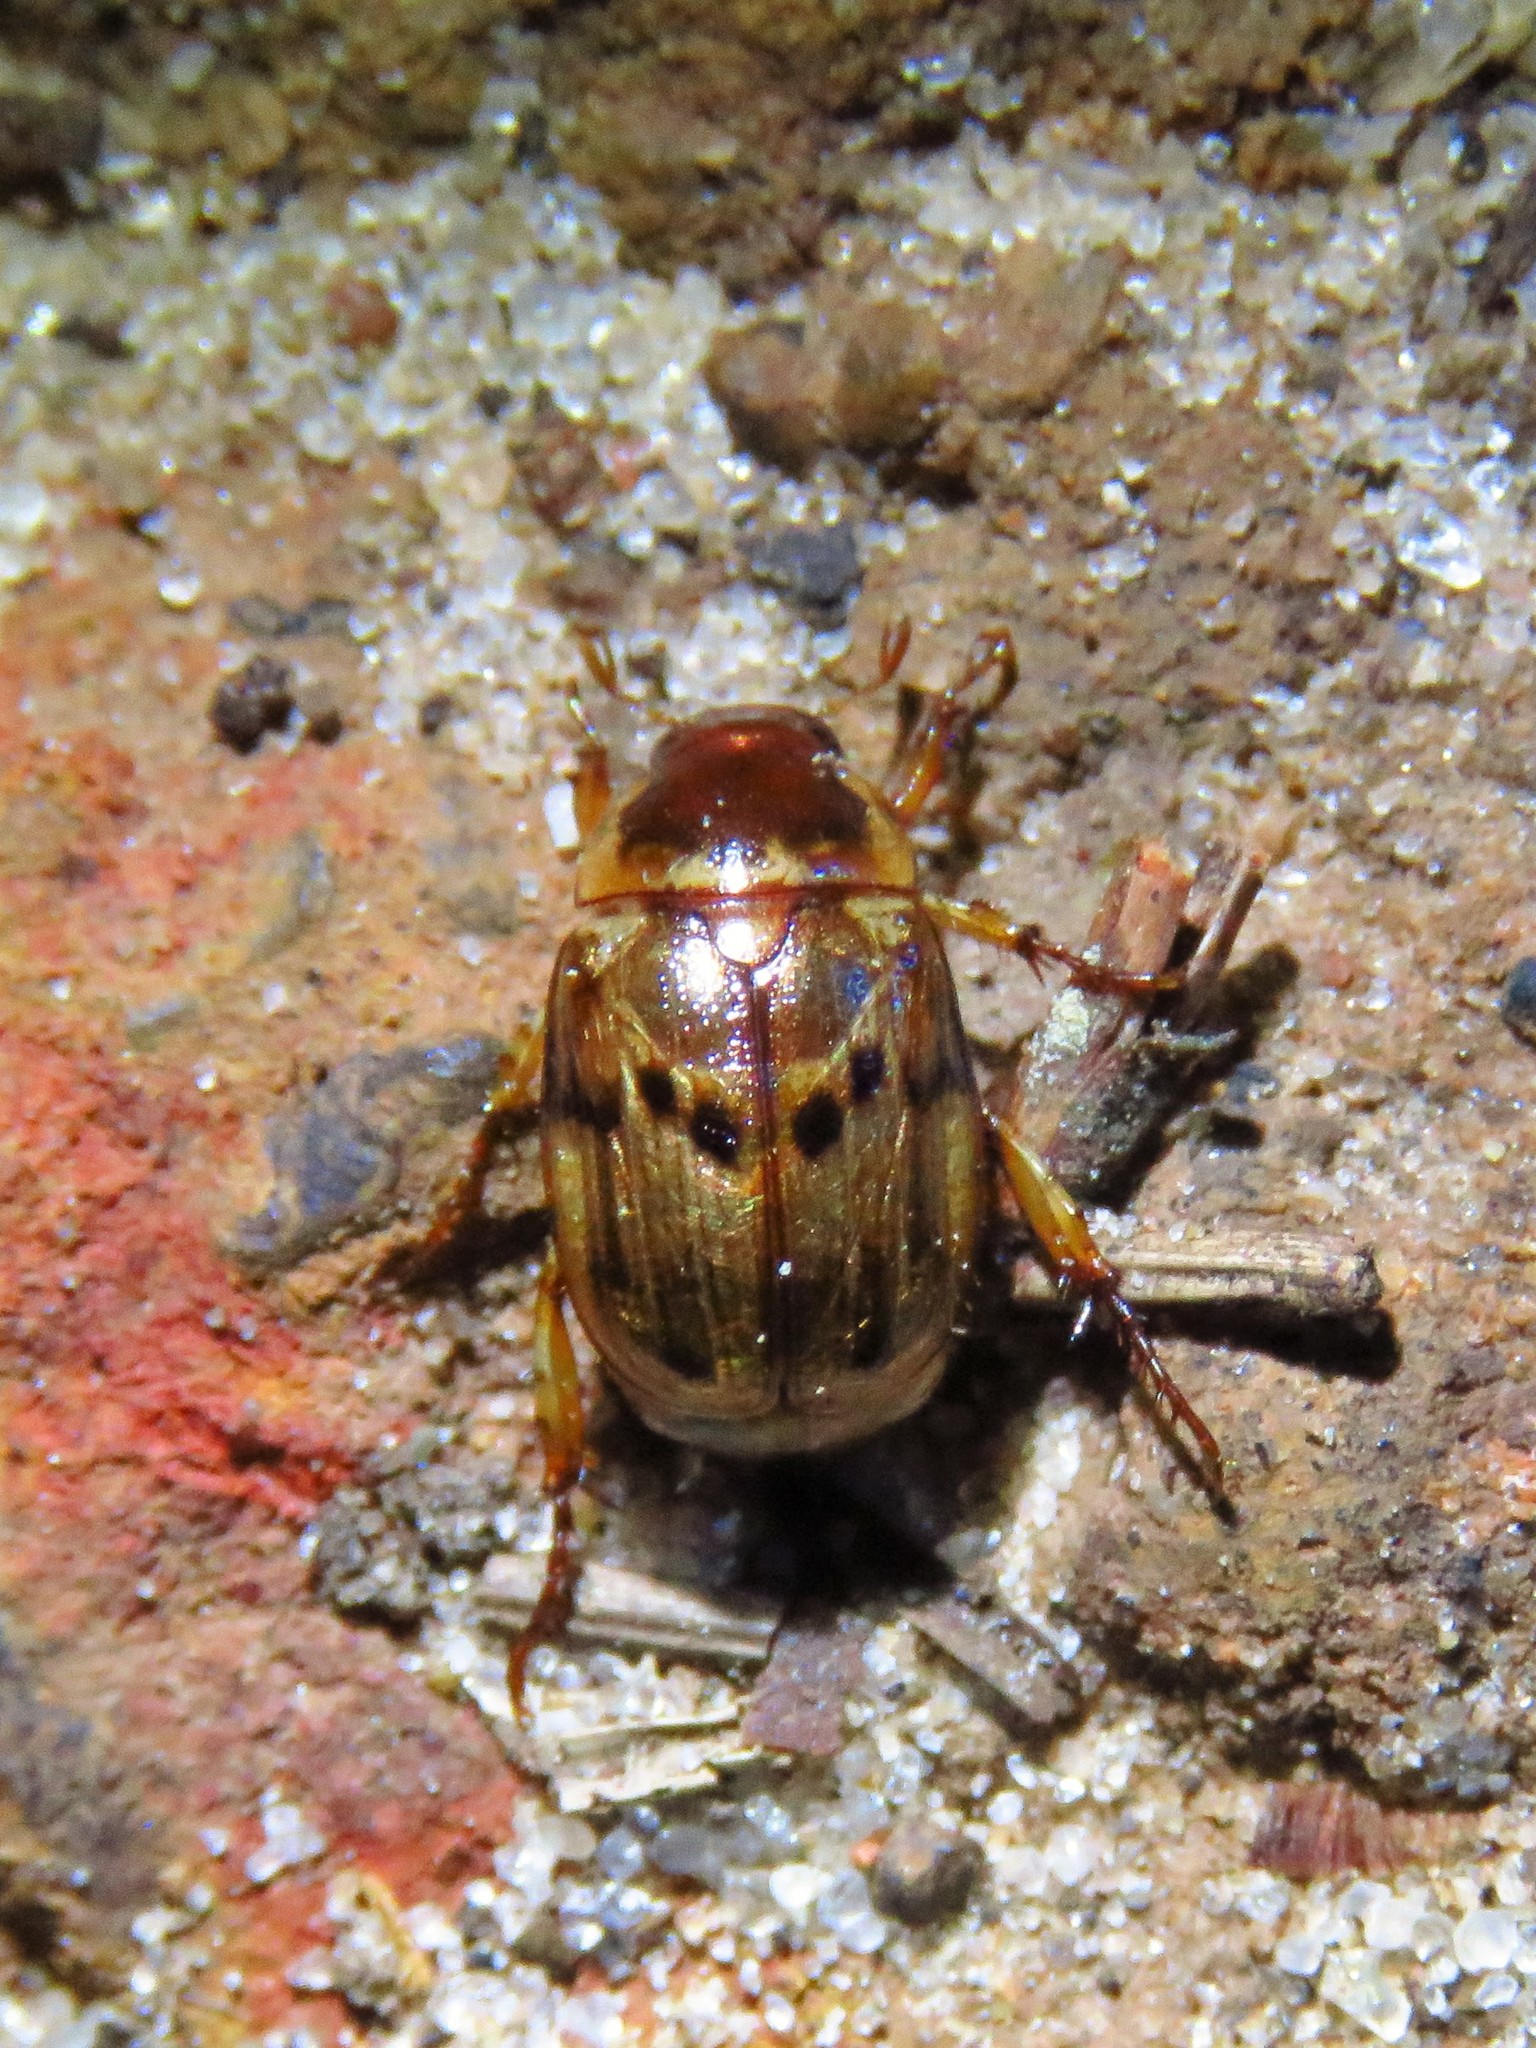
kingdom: Animalia
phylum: Arthropoda
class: Insecta
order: Coleoptera
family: Scarabaeidae
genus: Anomala
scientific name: Anomala innuba
